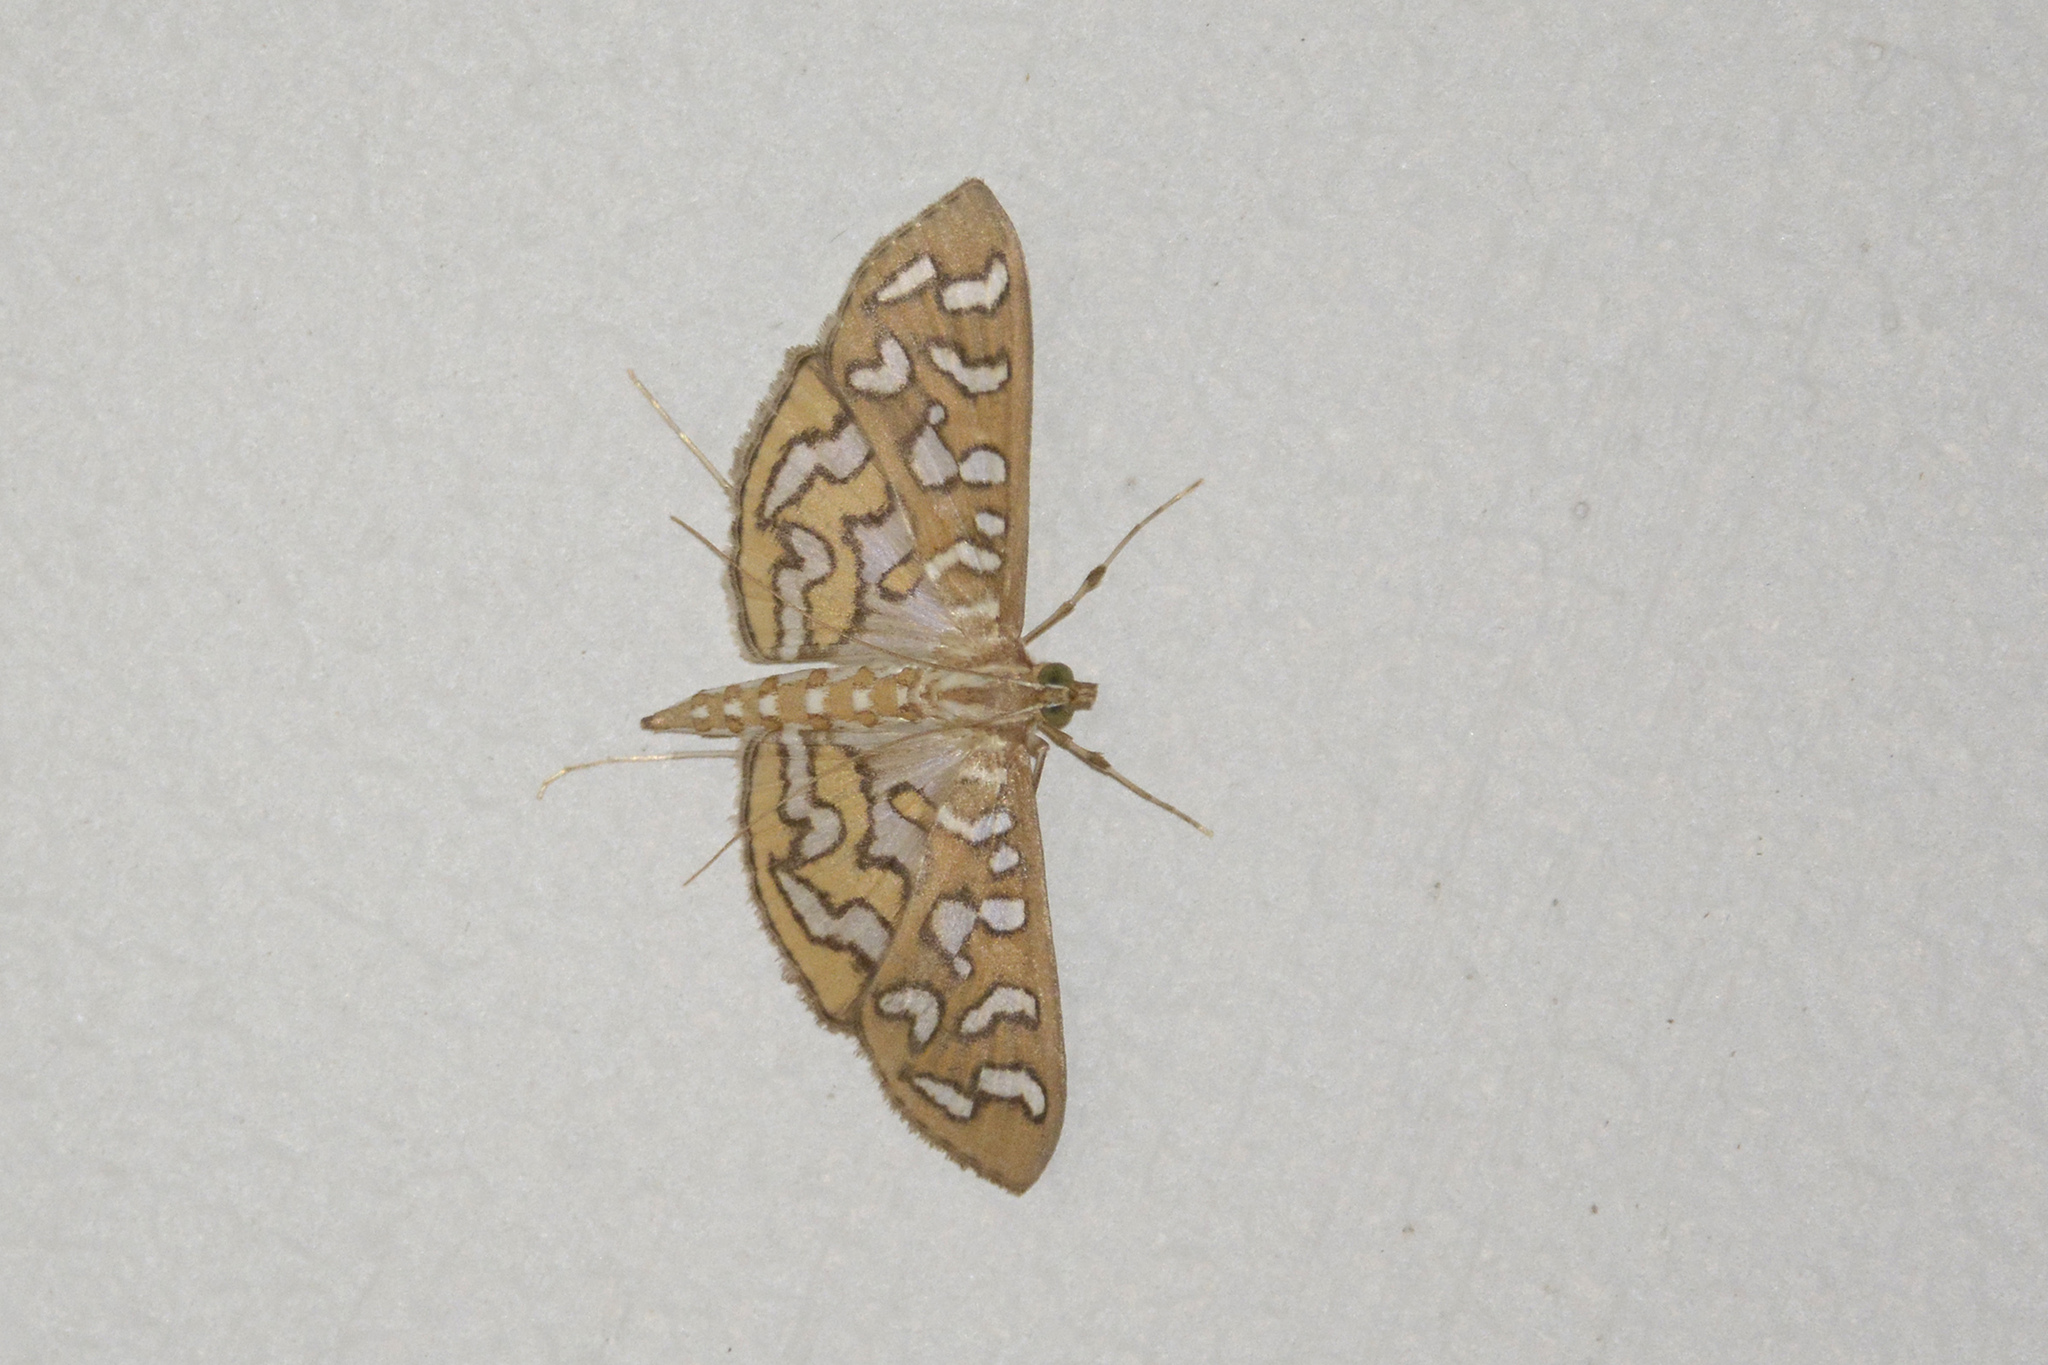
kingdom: Animalia
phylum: Arthropoda
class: Insecta
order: Lepidoptera
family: Crambidae
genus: Nausinoe
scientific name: Nausinoe perspectata
